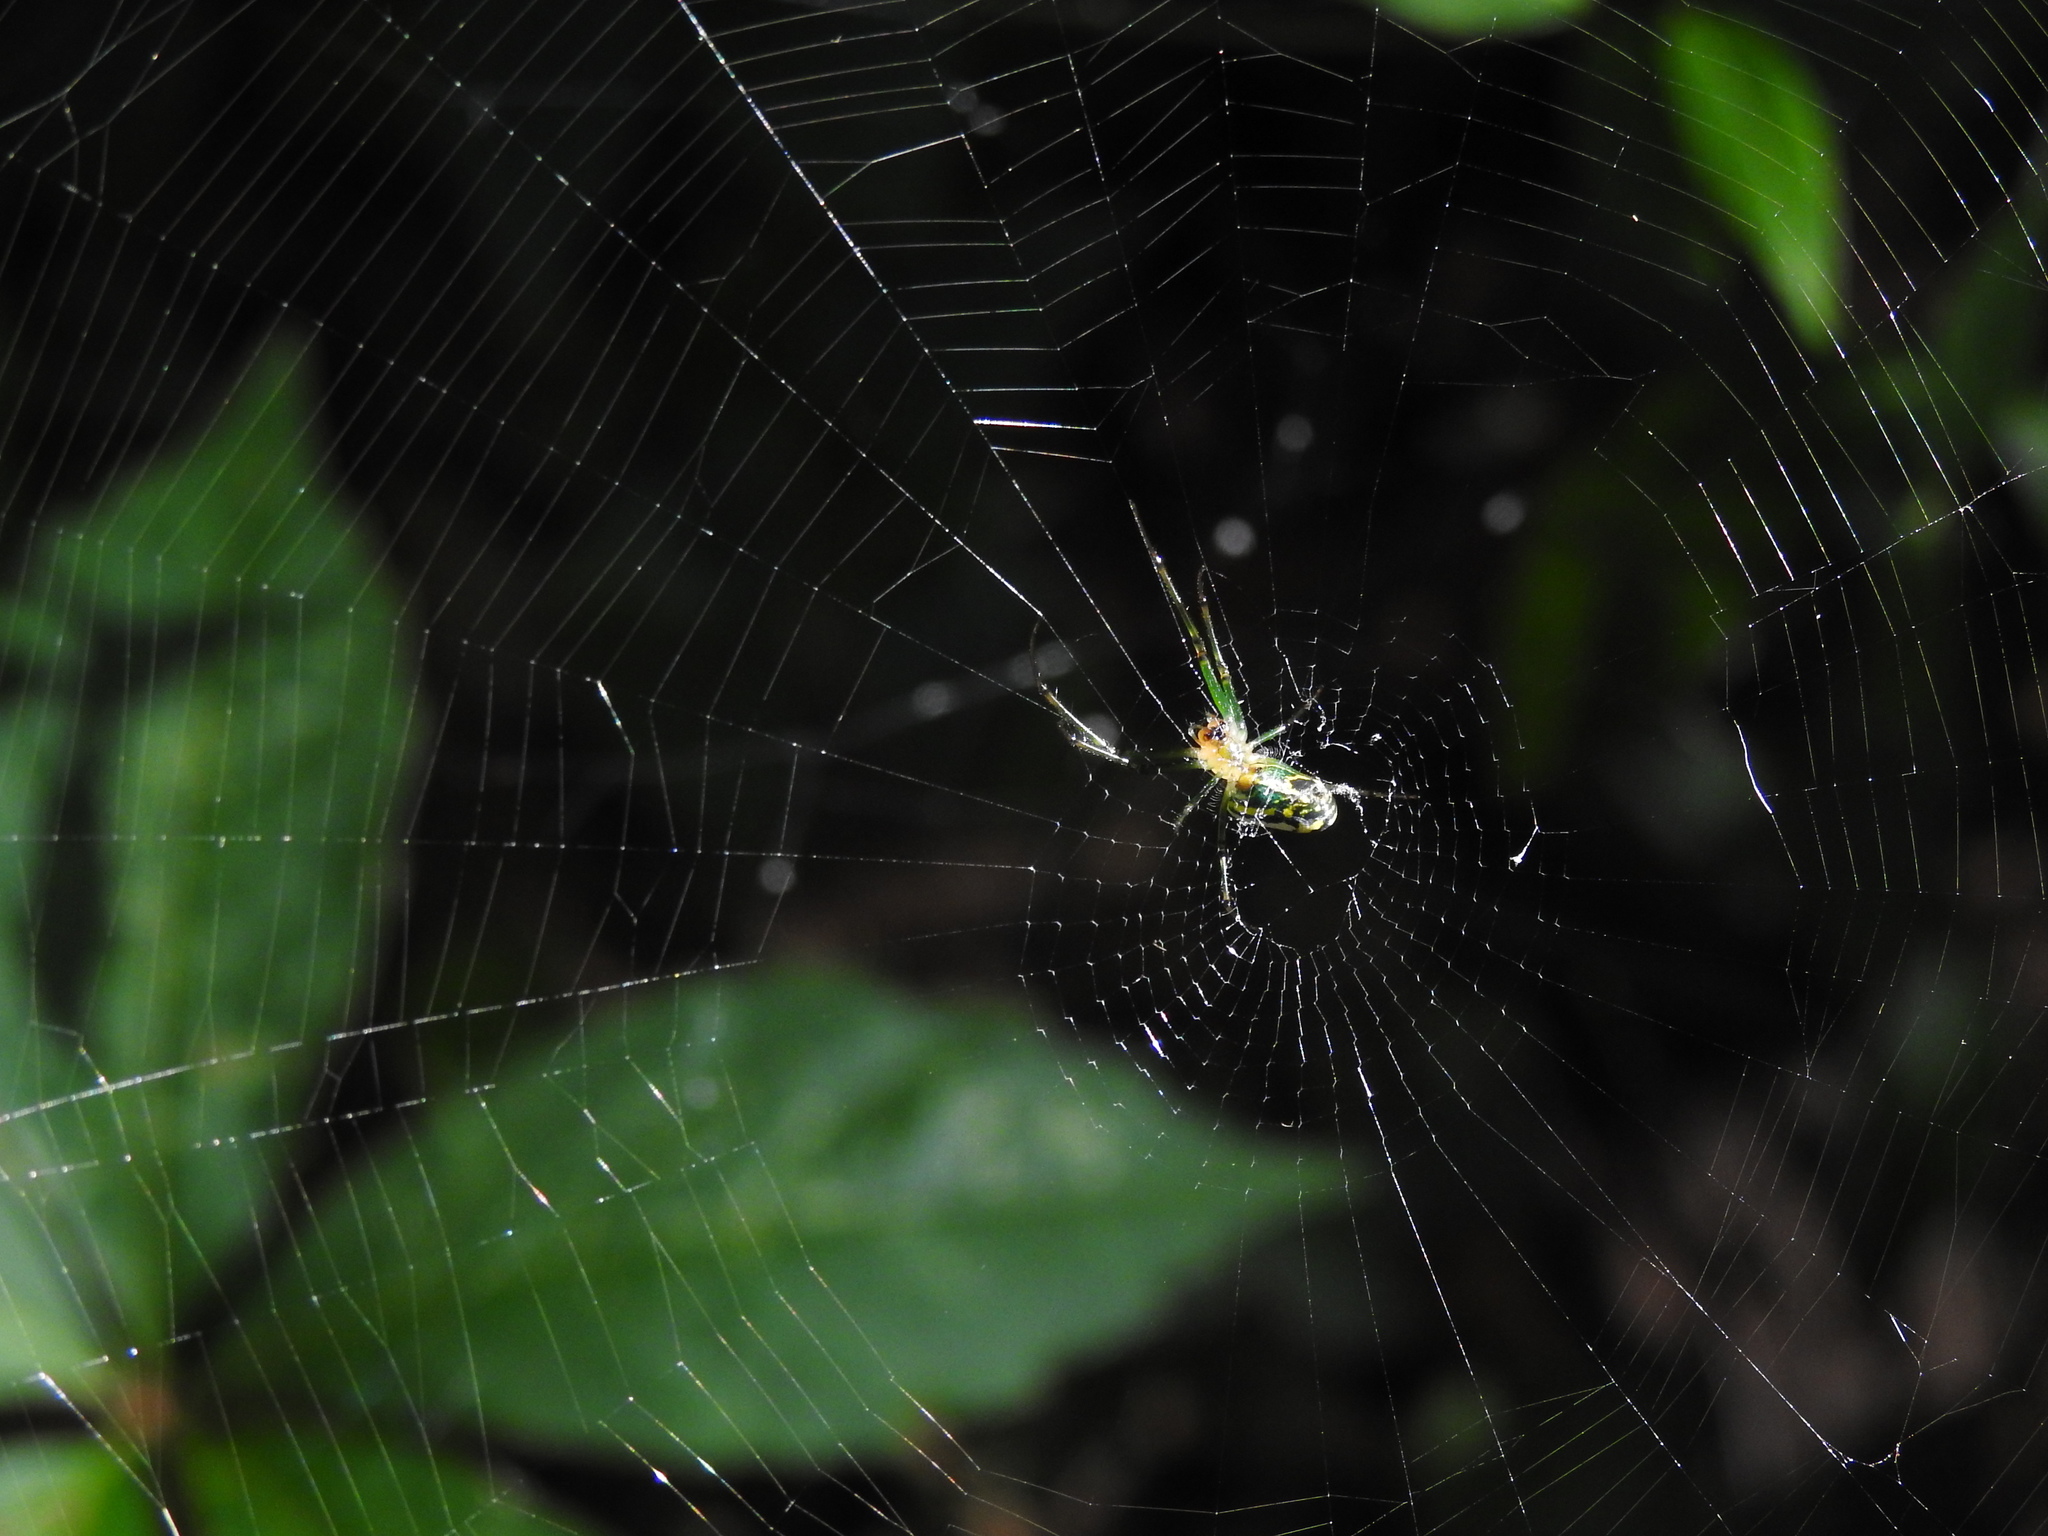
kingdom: Animalia
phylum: Arthropoda
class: Arachnida
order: Araneae
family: Tetragnathidae
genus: Leucauge
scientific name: Leucauge venusta
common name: Longjawed orb weavers
